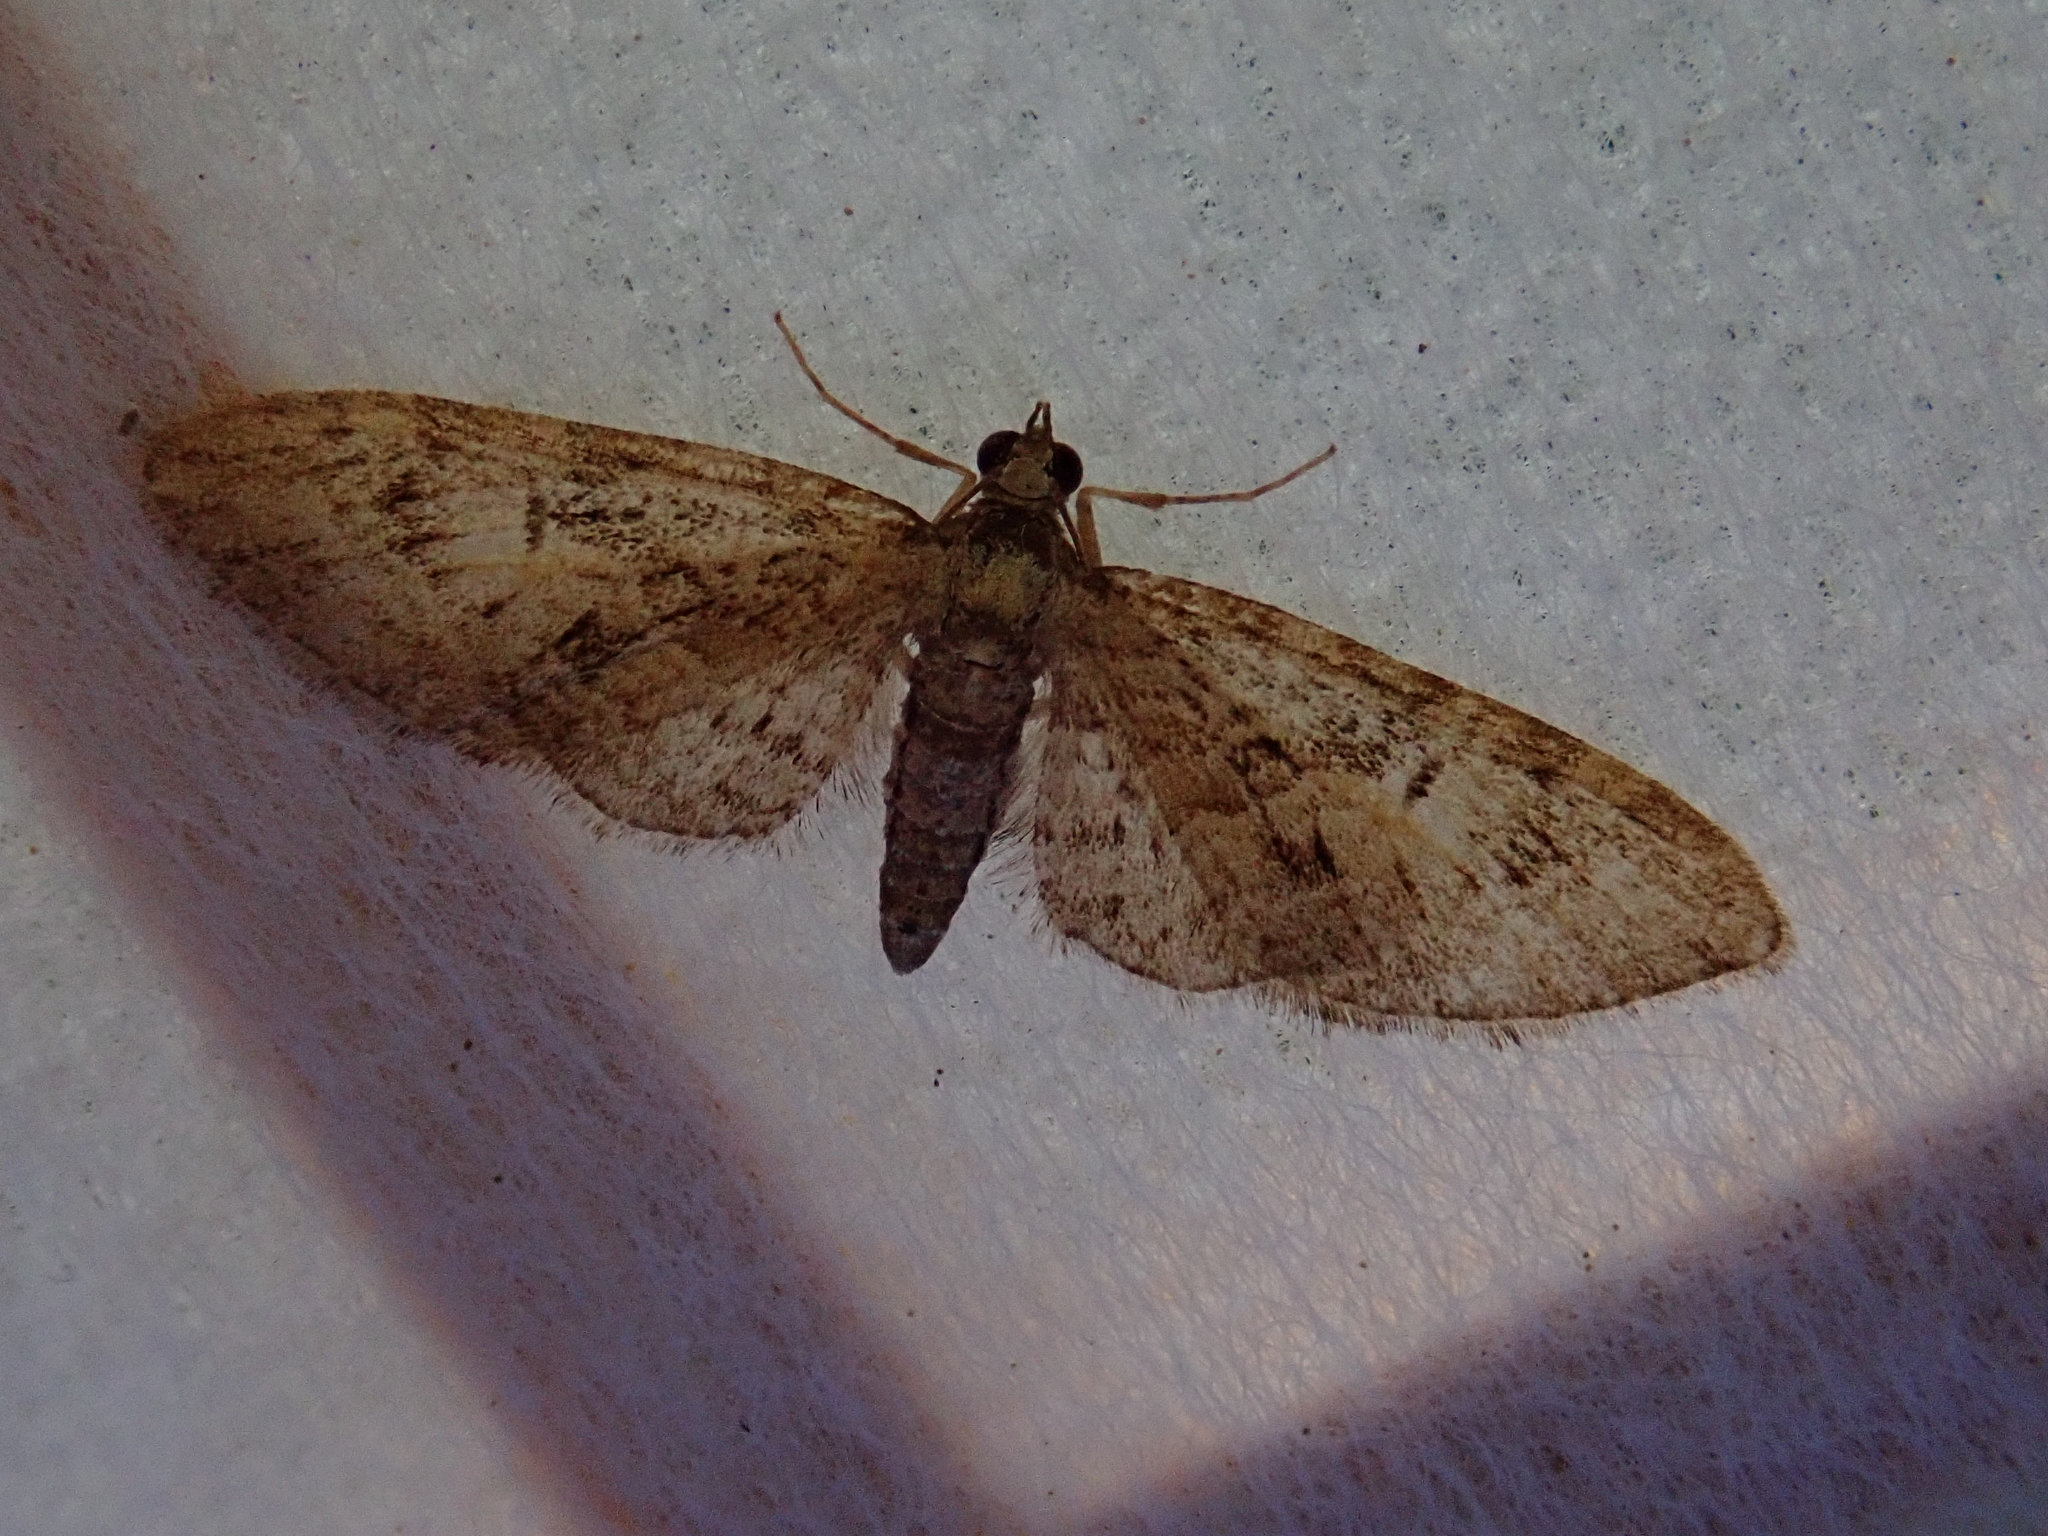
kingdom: Animalia
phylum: Arthropoda
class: Insecta
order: Lepidoptera
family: Geometridae
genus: Eupithecia
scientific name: Eupithecia abbreviata
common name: Brindled pug
